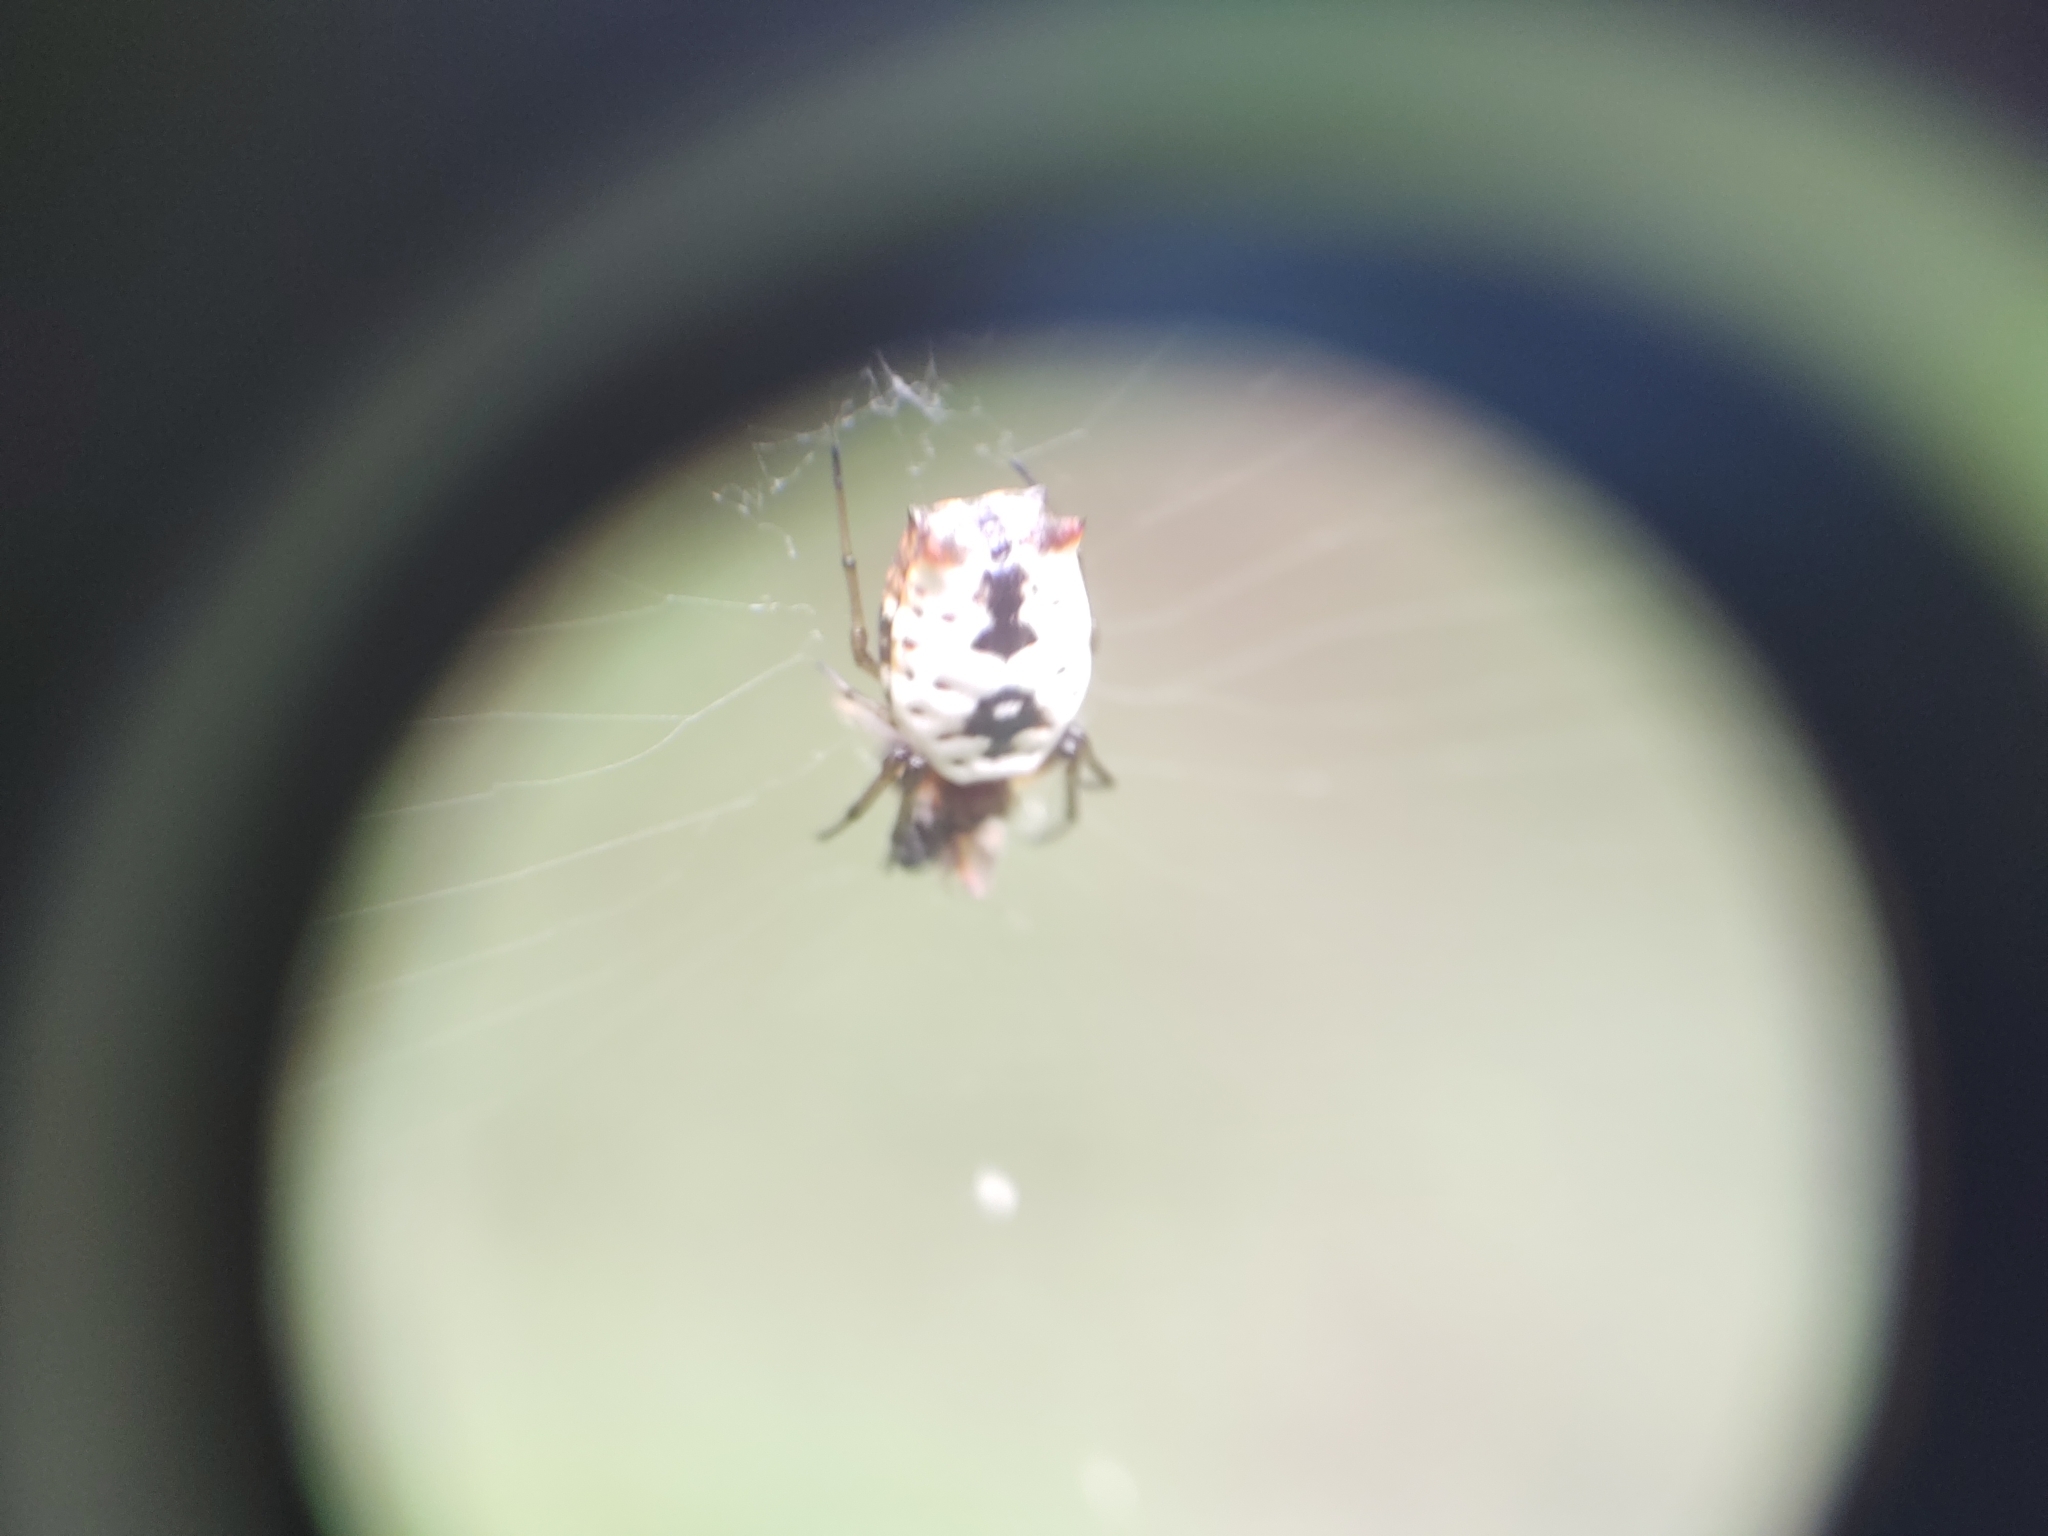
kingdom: Animalia
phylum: Arthropoda
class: Arachnida
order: Araneae
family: Araneidae
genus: Micrathena
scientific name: Micrathena mitrata
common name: Orb weavers
